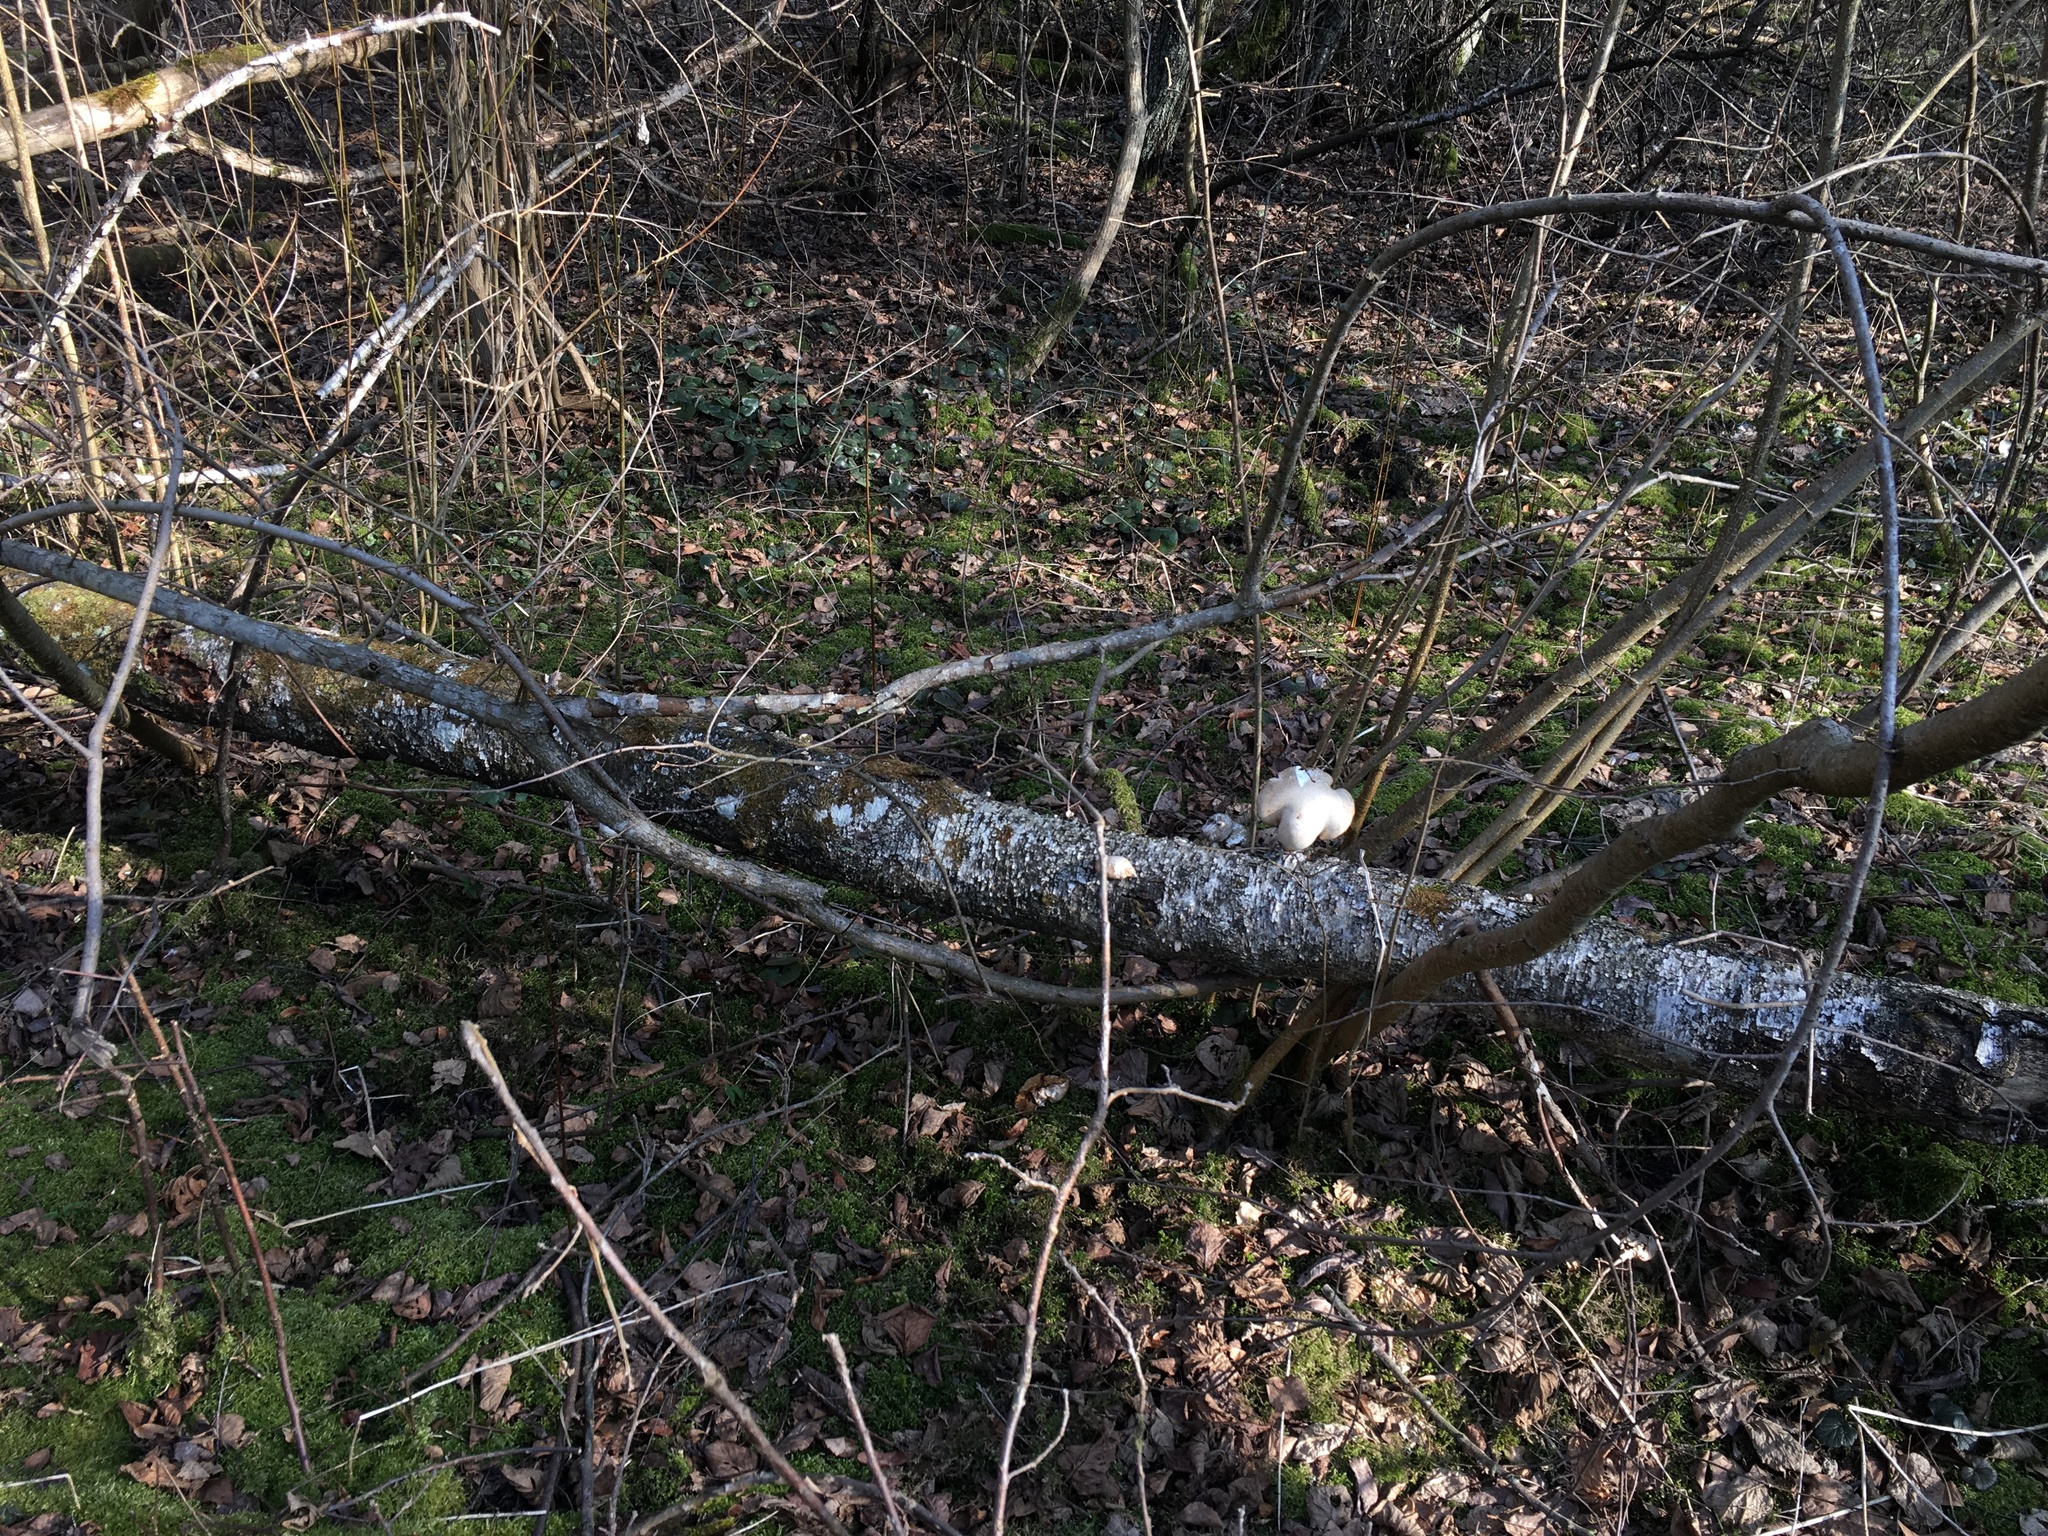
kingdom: Fungi
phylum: Basidiomycota
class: Agaricomycetes
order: Polyporales
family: Fomitopsidaceae
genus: Fomitopsis
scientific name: Fomitopsis betulina
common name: Birch polypore
